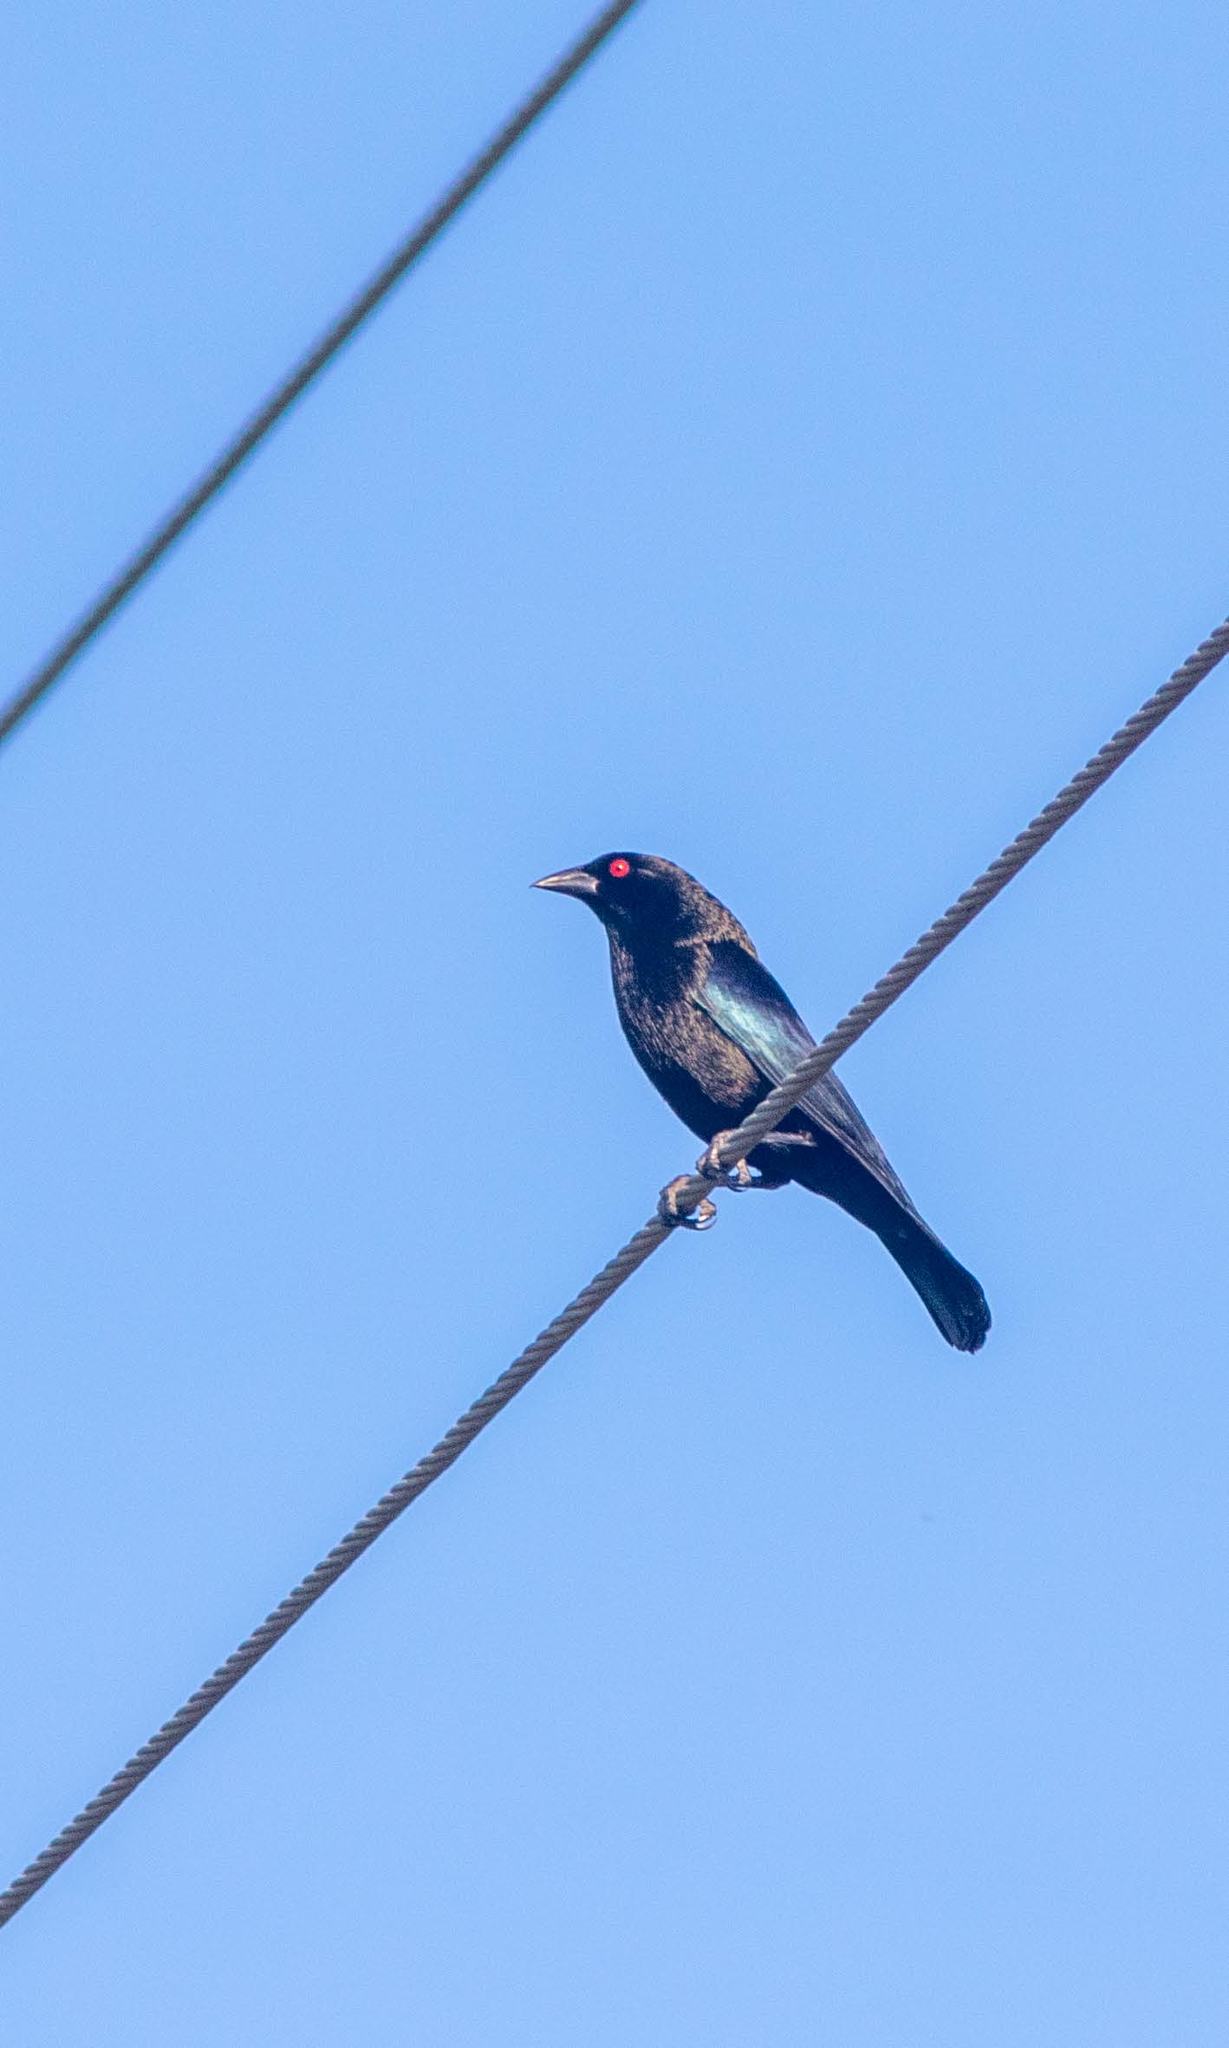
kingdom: Animalia
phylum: Chordata
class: Aves
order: Passeriformes
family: Icteridae
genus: Molothrus
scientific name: Molothrus aeneus
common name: Bronzed cowbird
